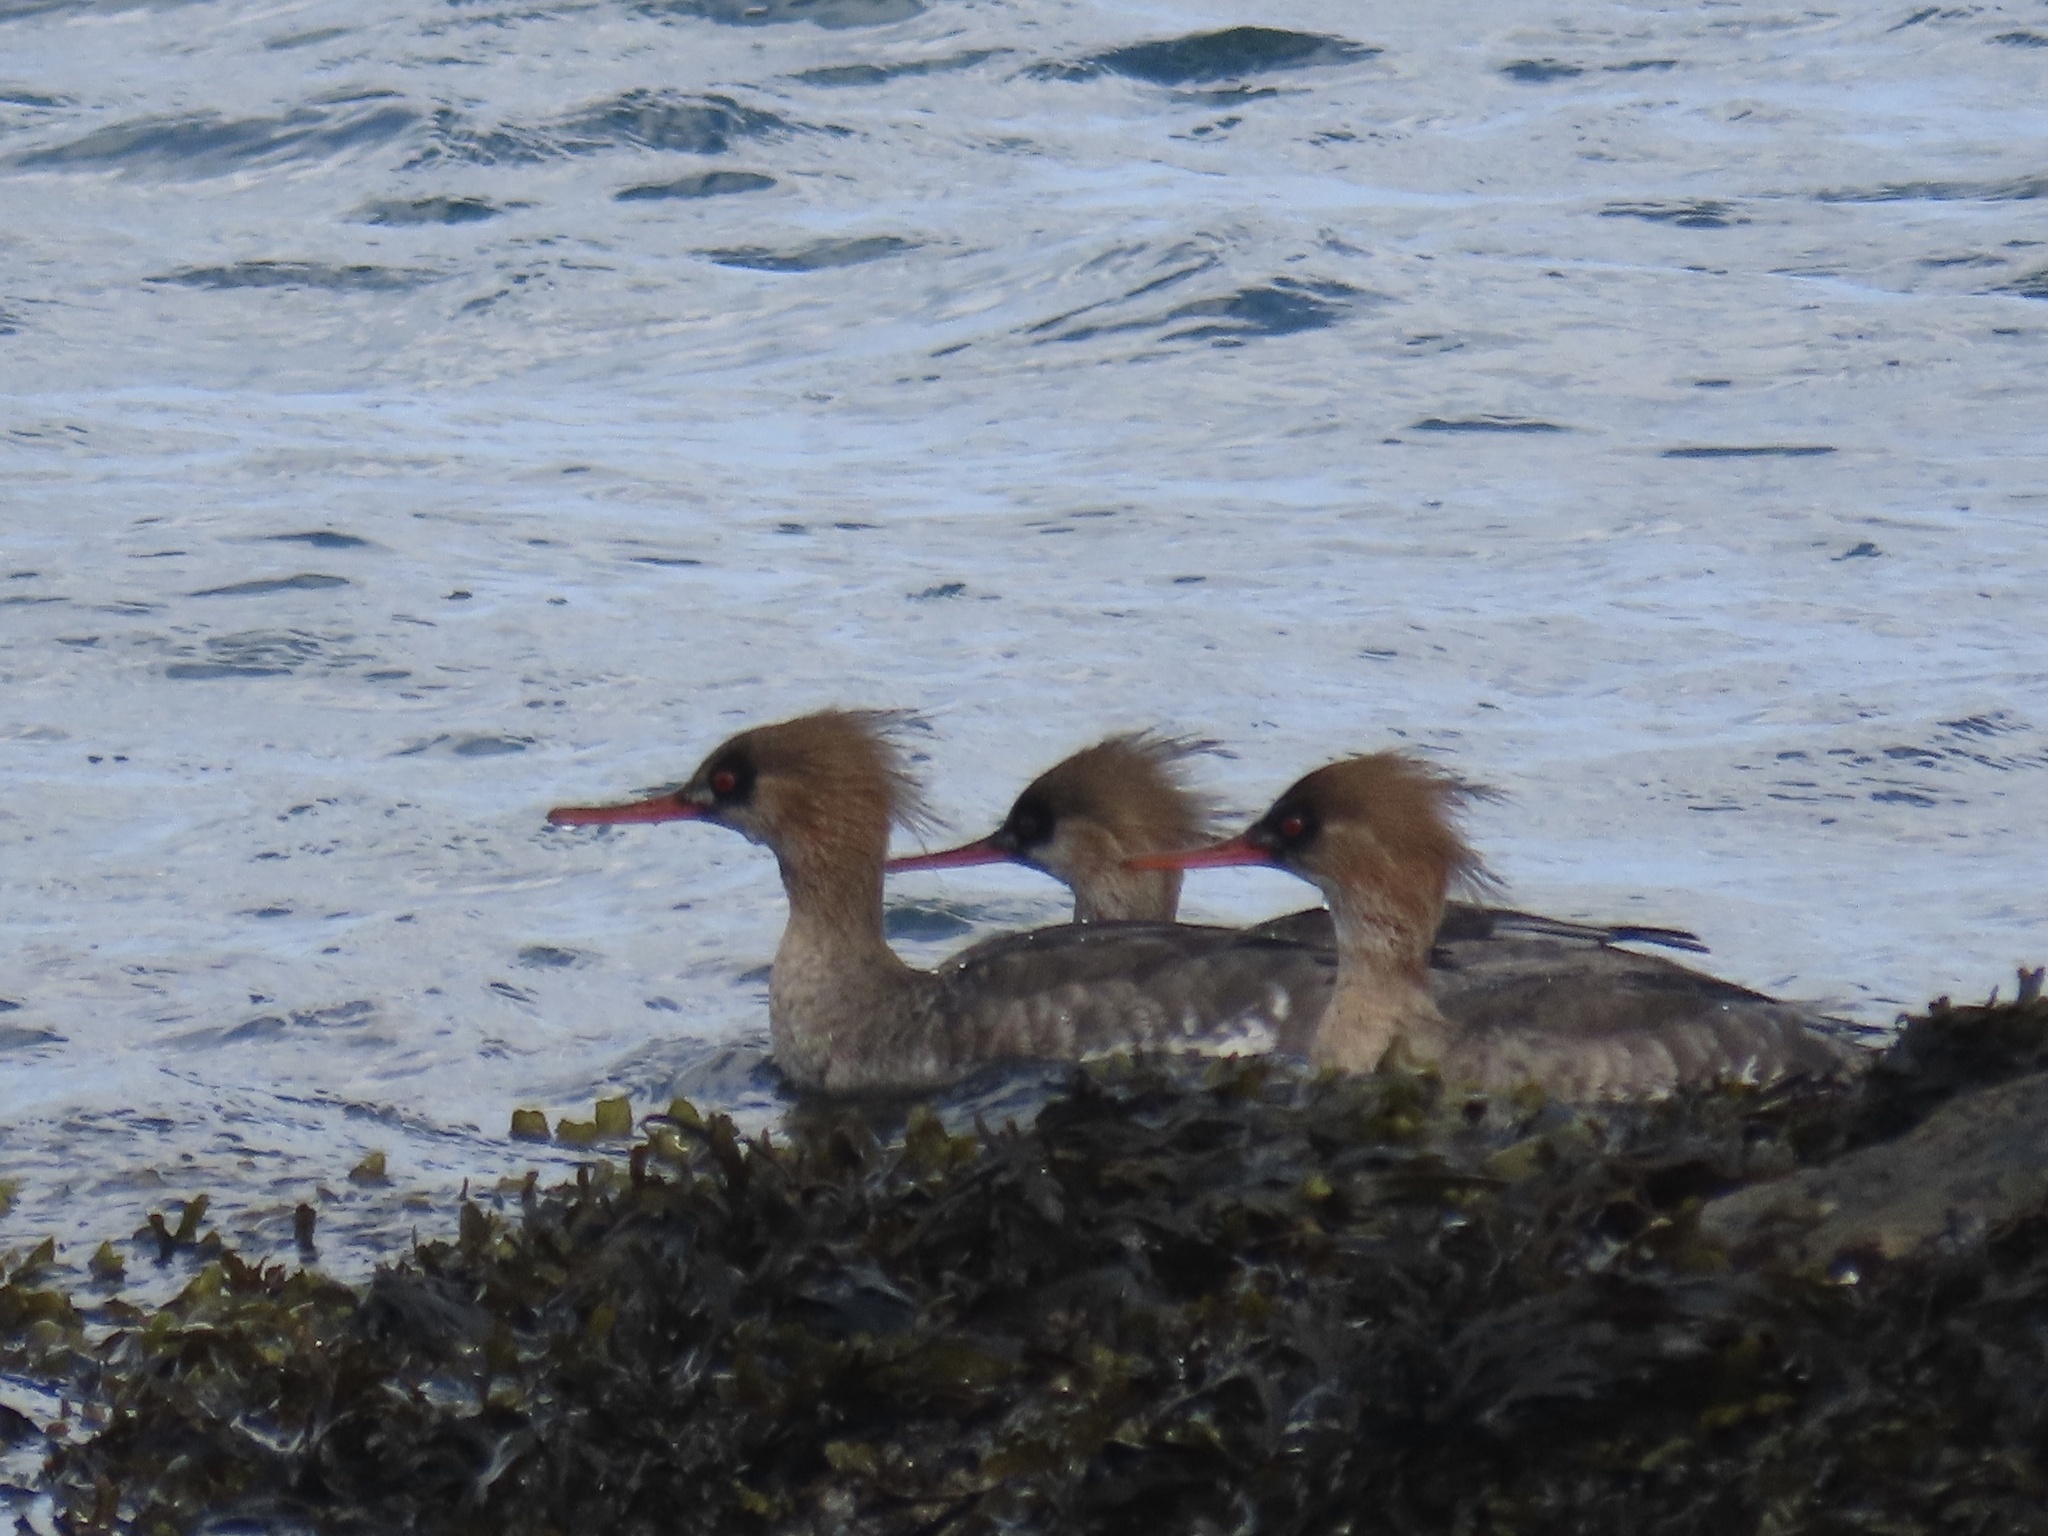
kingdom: Animalia
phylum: Chordata
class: Aves
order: Anseriformes
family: Anatidae
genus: Mergus
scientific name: Mergus serrator
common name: Red-breasted merganser
